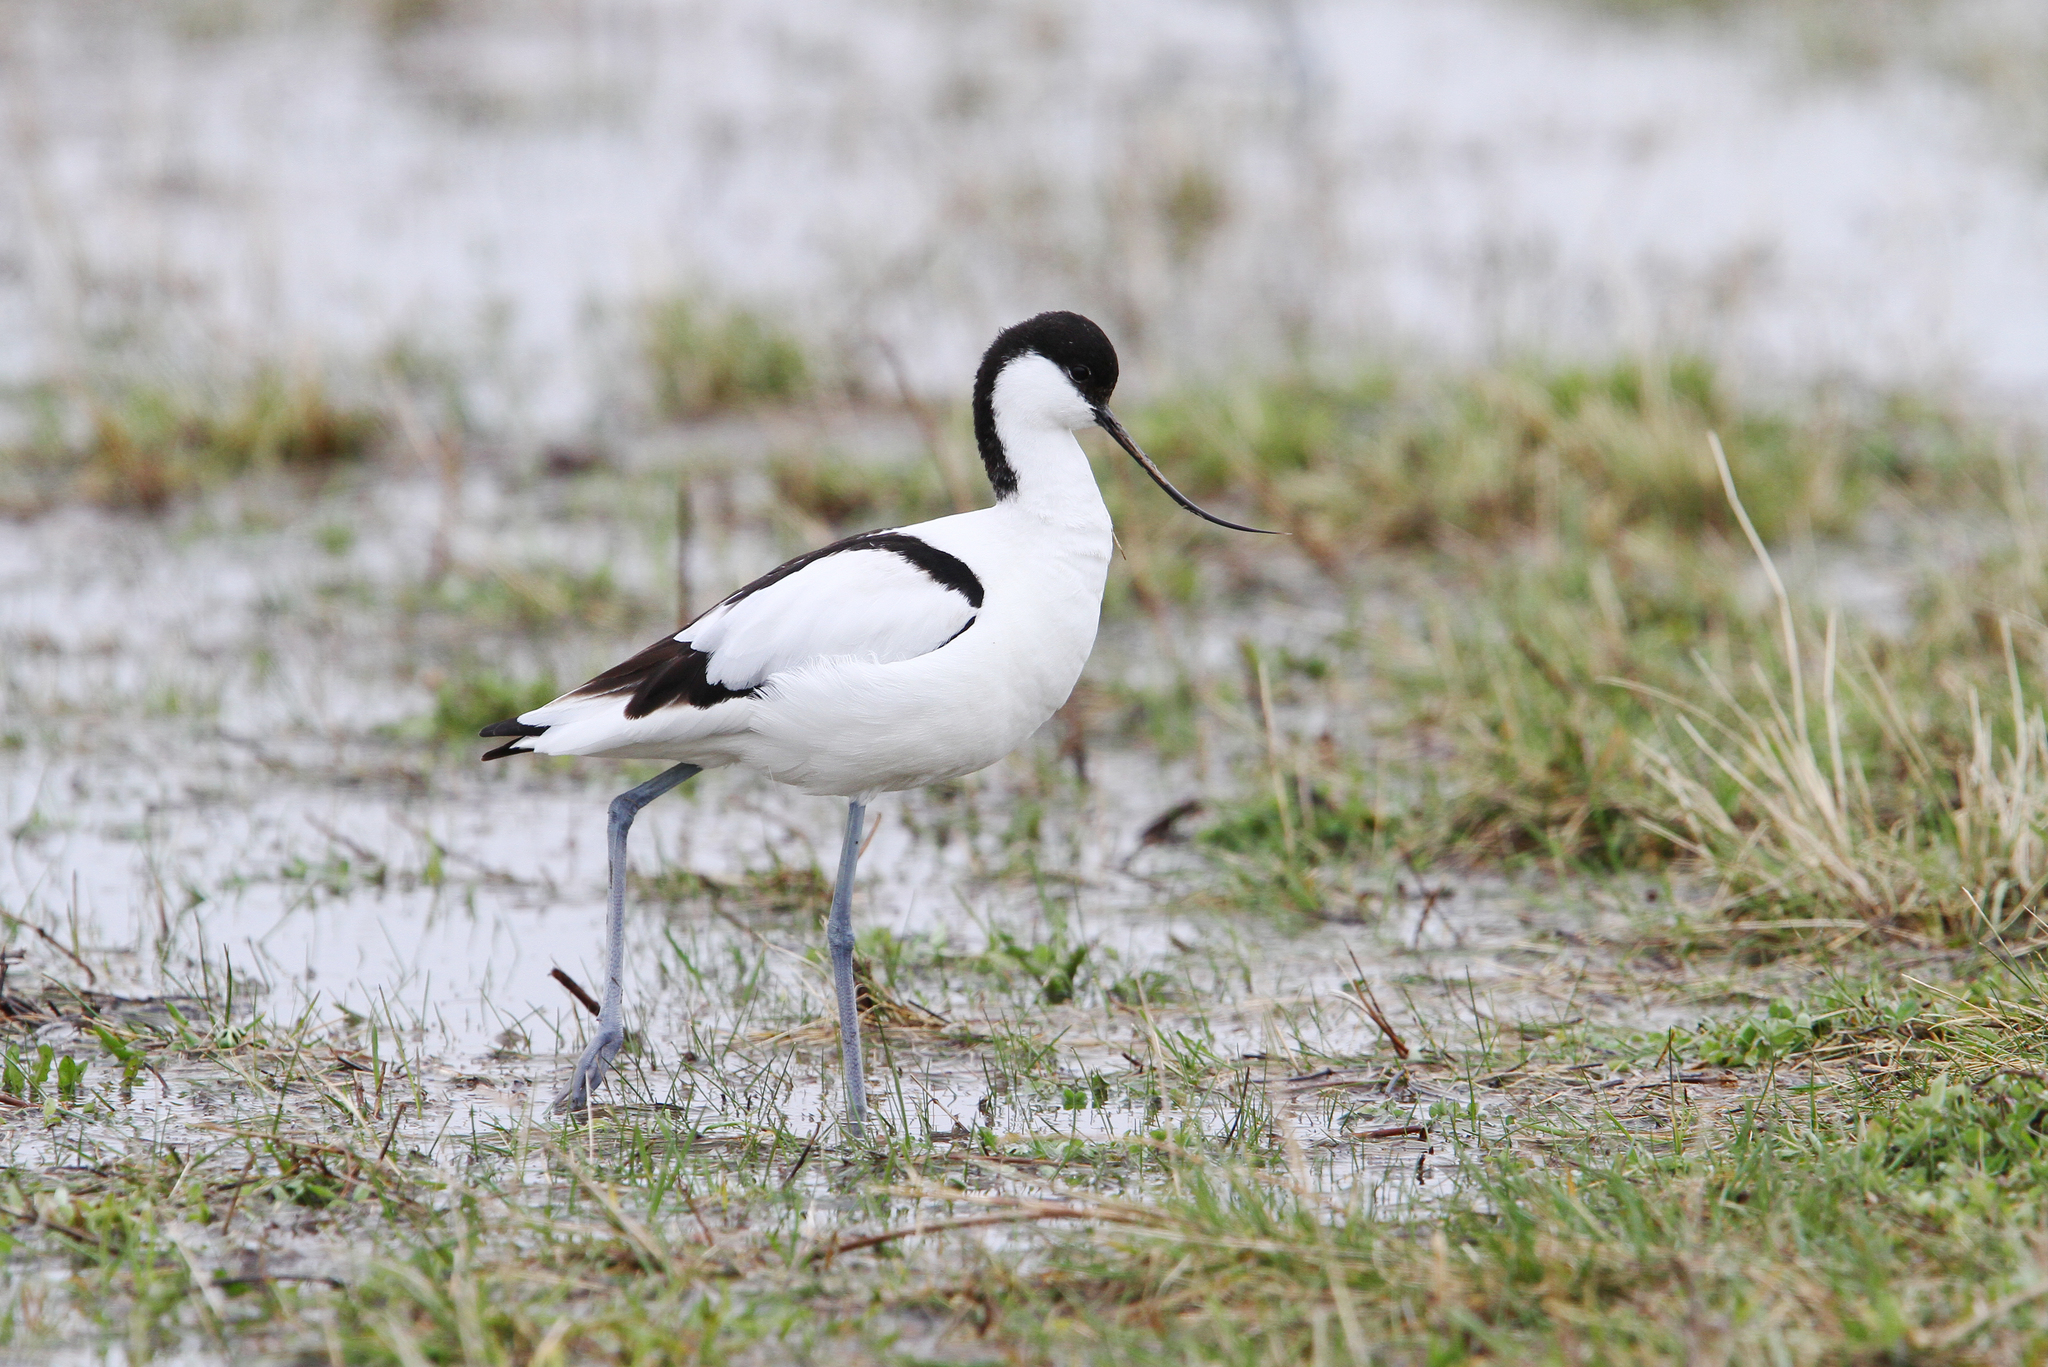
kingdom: Animalia
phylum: Chordata
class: Aves
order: Charadriiformes
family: Recurvirostridae
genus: Recurvirostra
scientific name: Recurvirostra avosetta
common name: Pied avocet
